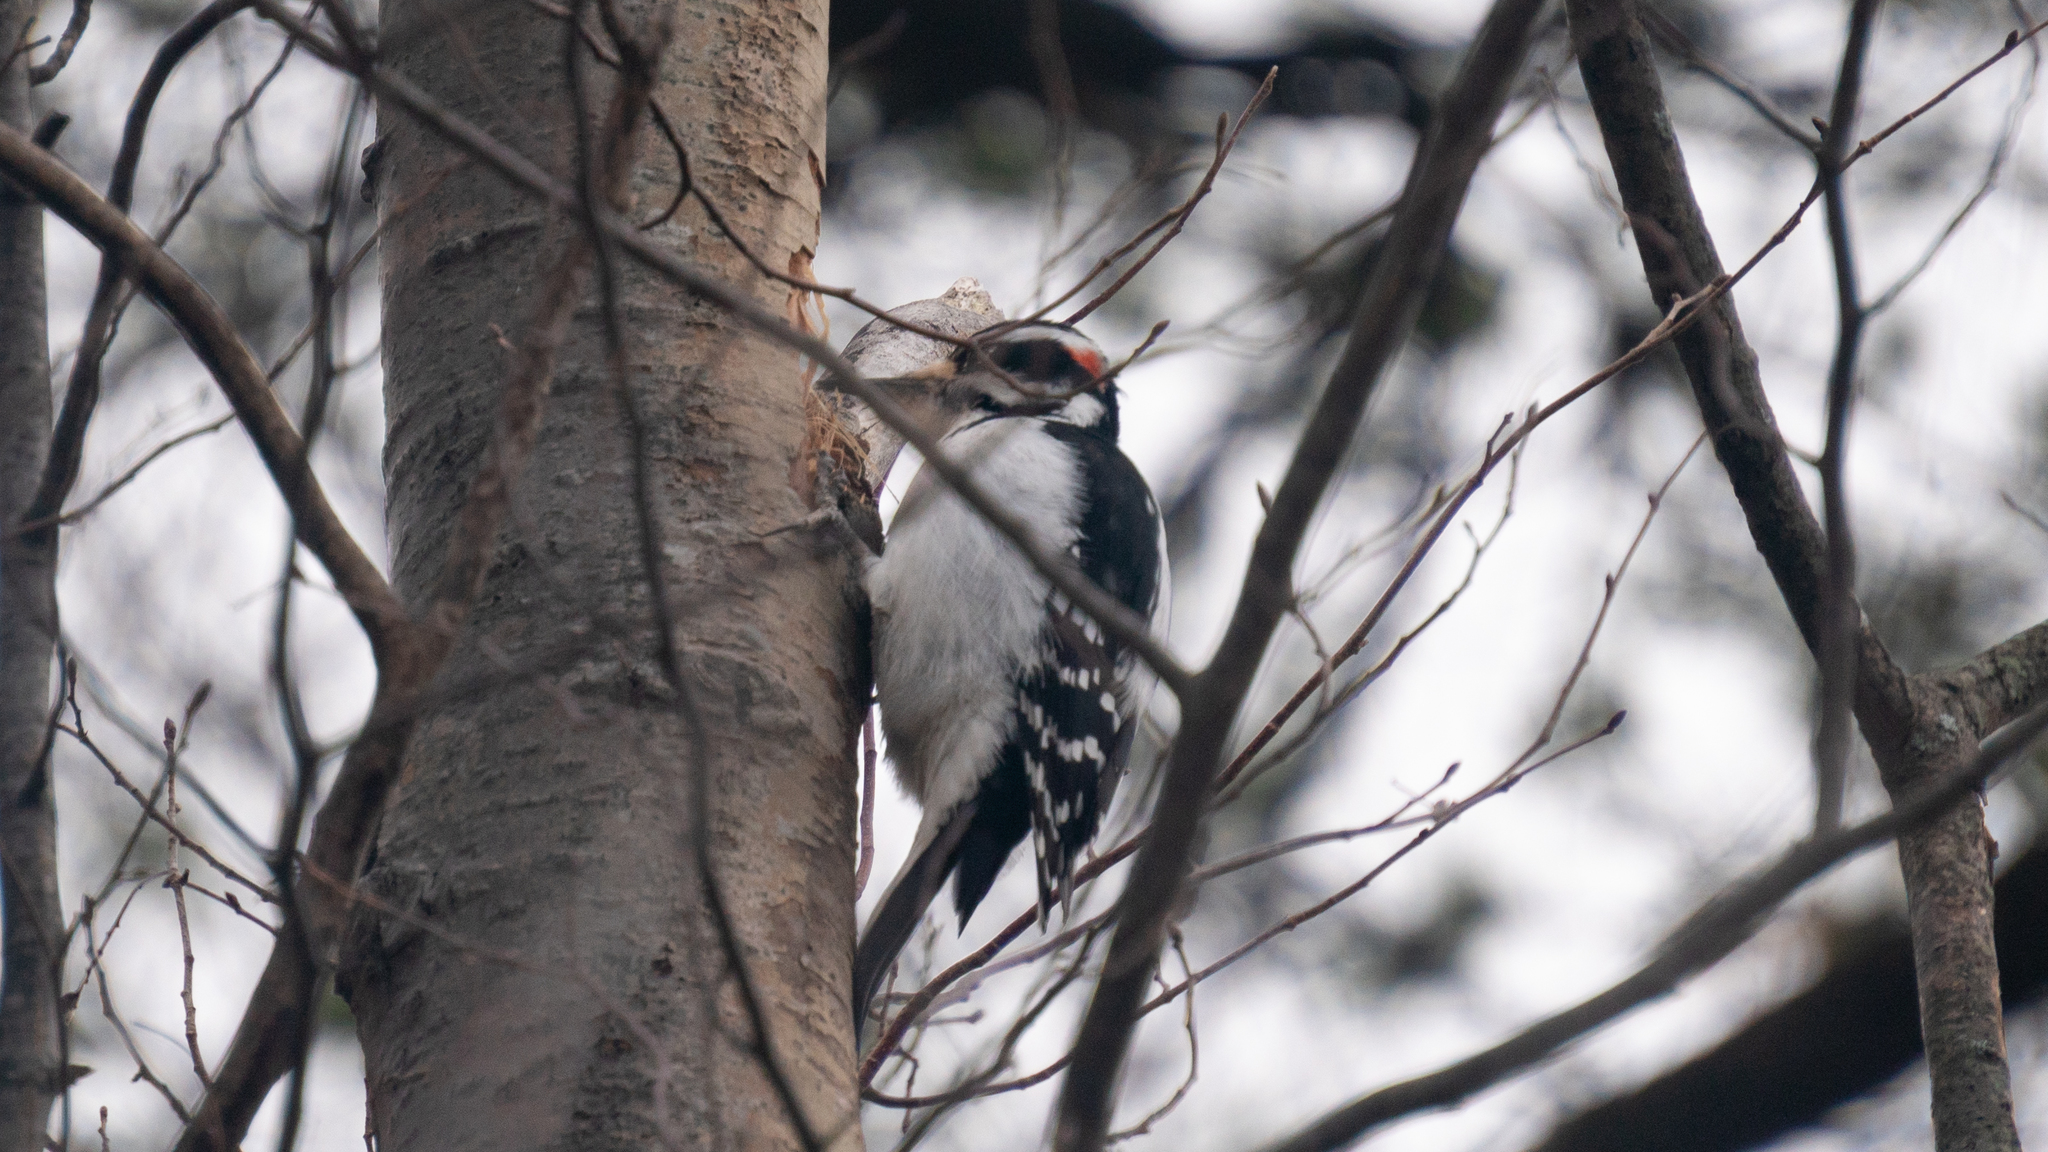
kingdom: Animalia
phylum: Chordata
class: Aves
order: Piciformes
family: Picidae
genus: Leuconotopicus
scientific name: Leuconotopicus villosus
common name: Hairy woodpecker
